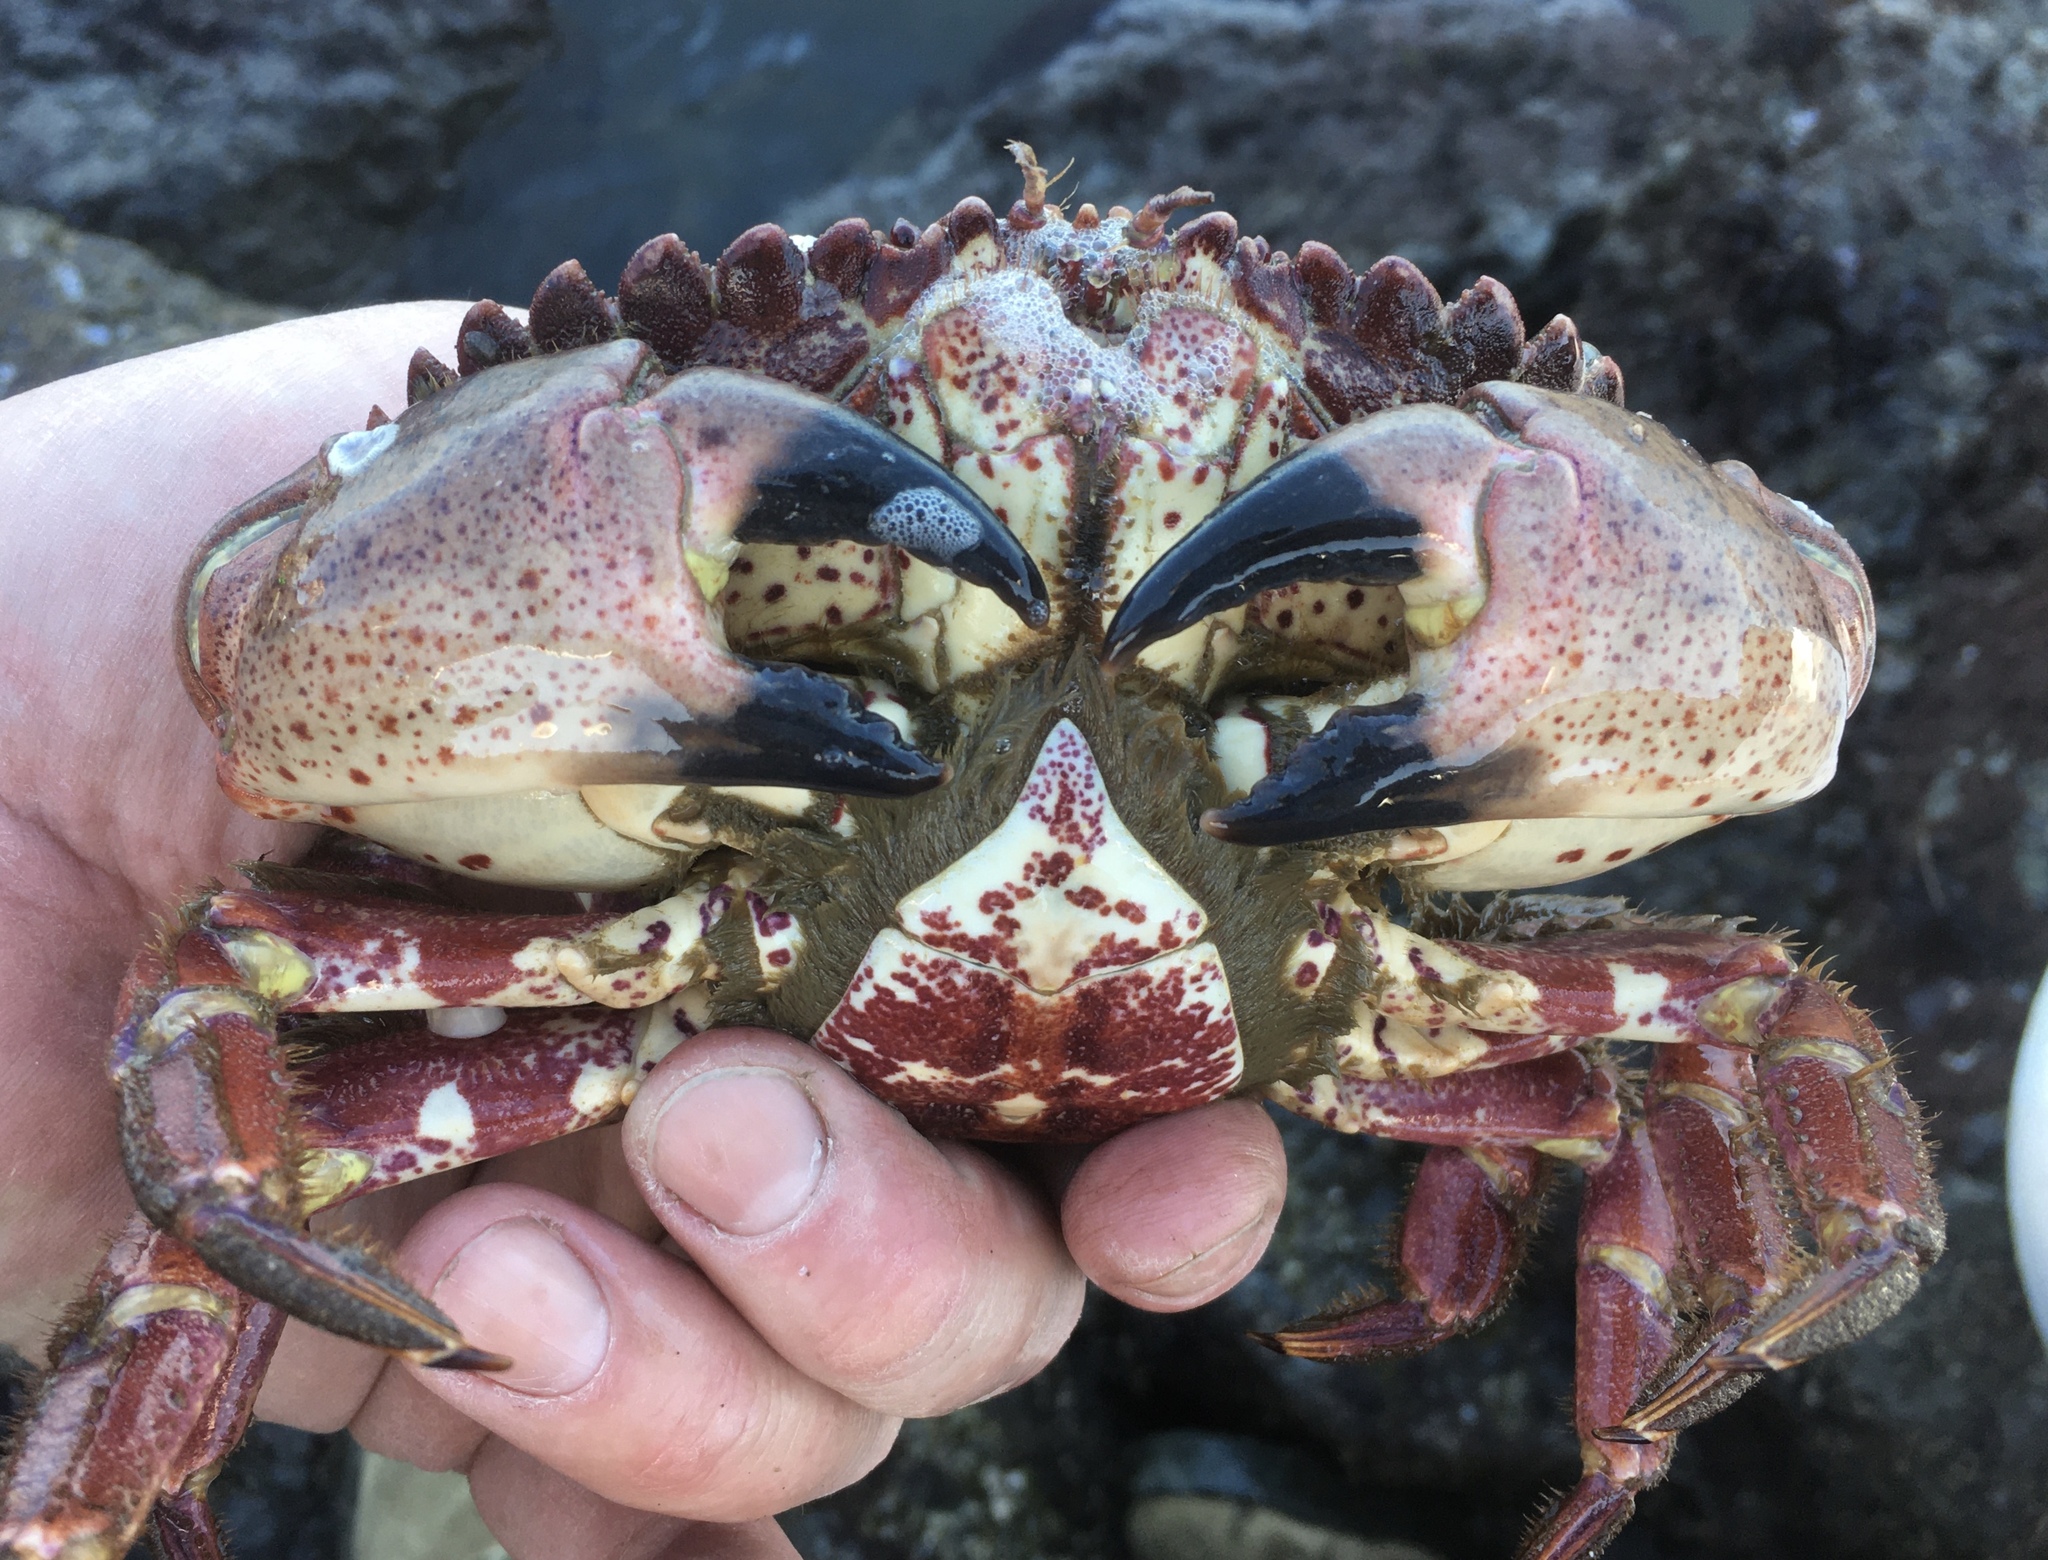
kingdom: Animalia
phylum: Arthropoda
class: Malacostraca
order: Decapoda
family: Cancridae
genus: Romaleon
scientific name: Romaleon antennarium
